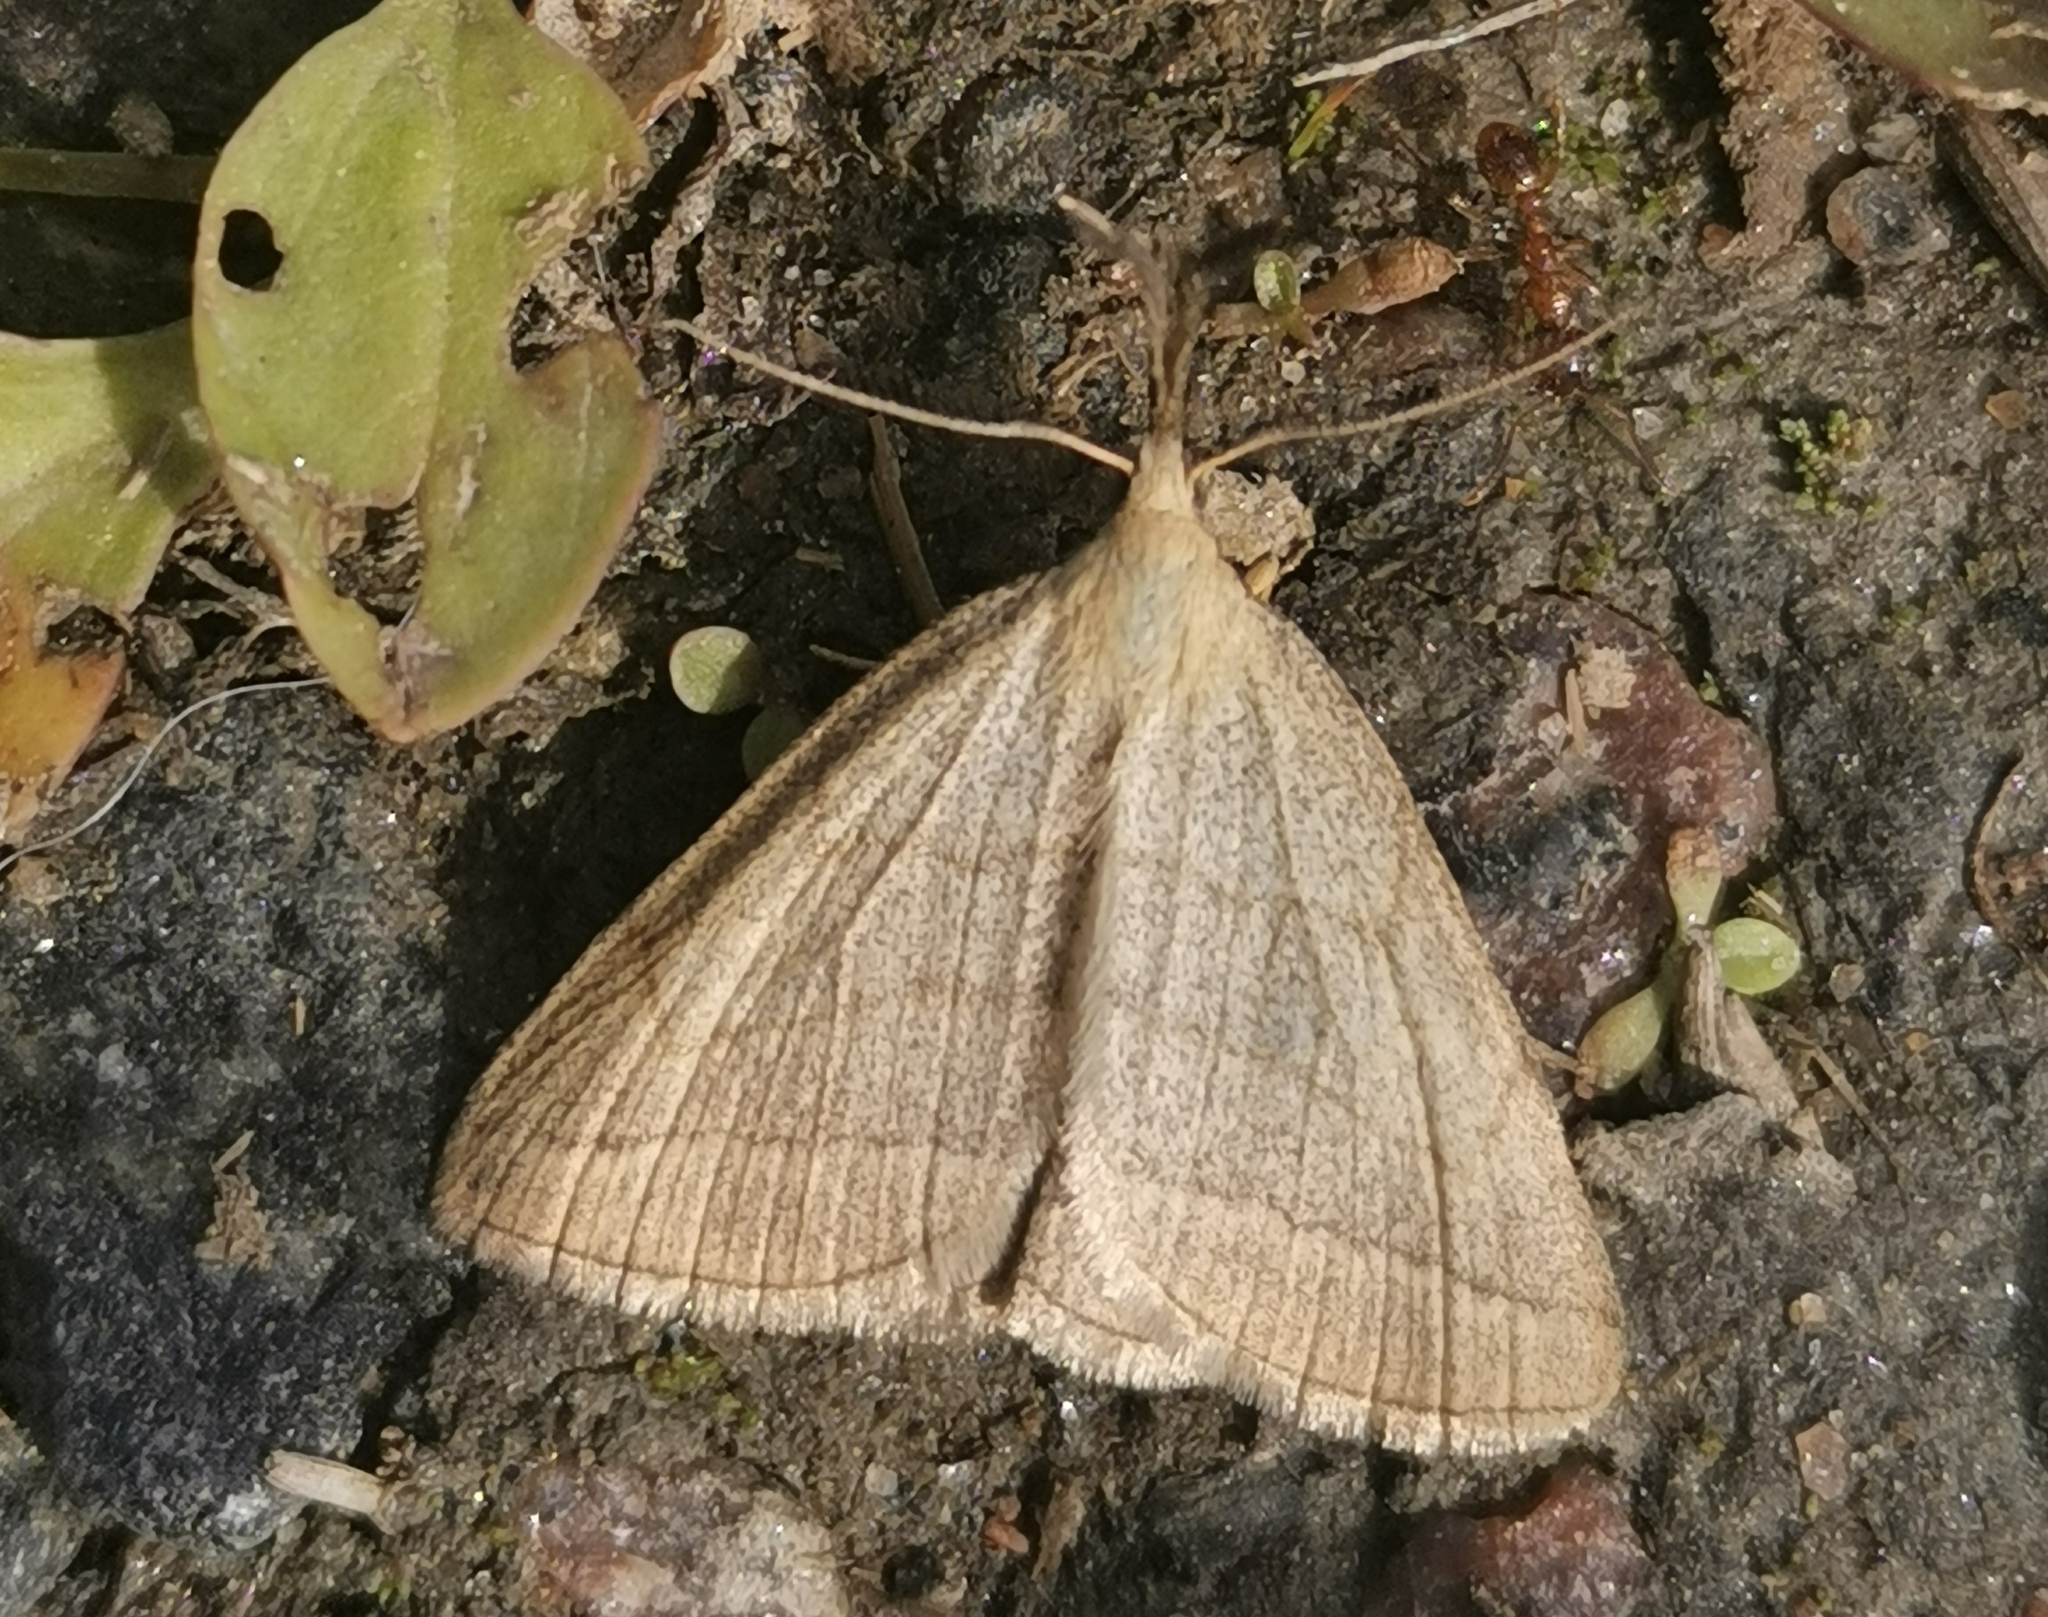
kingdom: Animalia
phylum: Arthropoda
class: Insecta
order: Lepidoptera
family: Erebidae
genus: Polypogon
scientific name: Polypogon tentacularia
